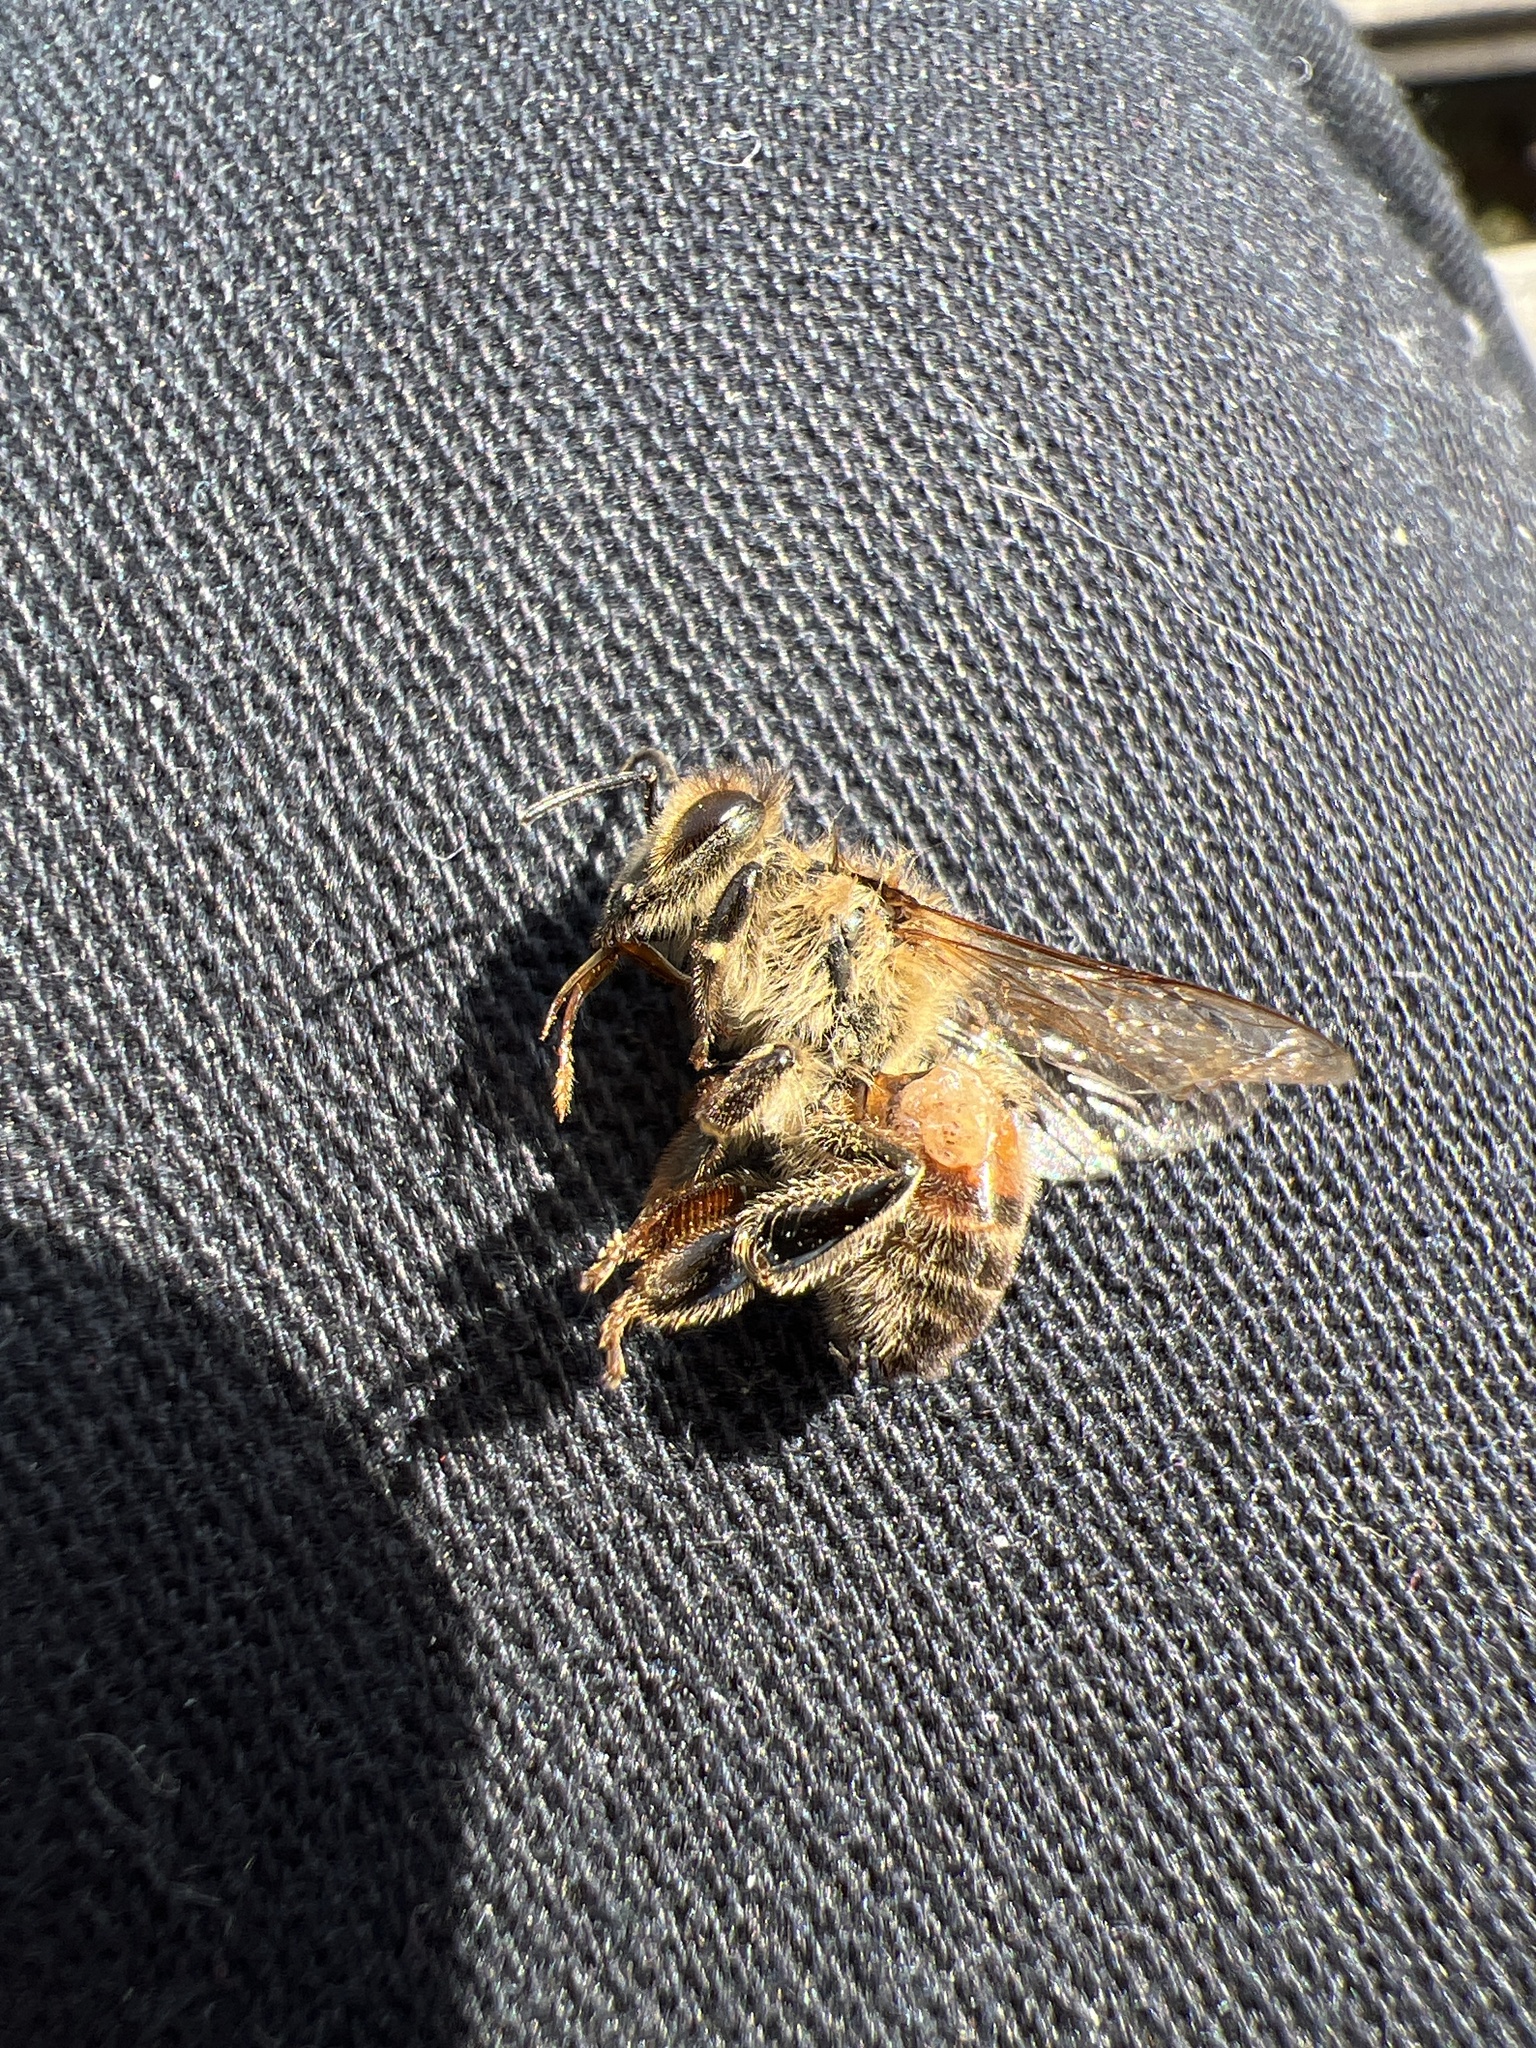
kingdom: Animalia
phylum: Arthropoda
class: Insecta
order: Hymenoptera
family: Apidae
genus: Apis
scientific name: Apis mellifera
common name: Honey bee
